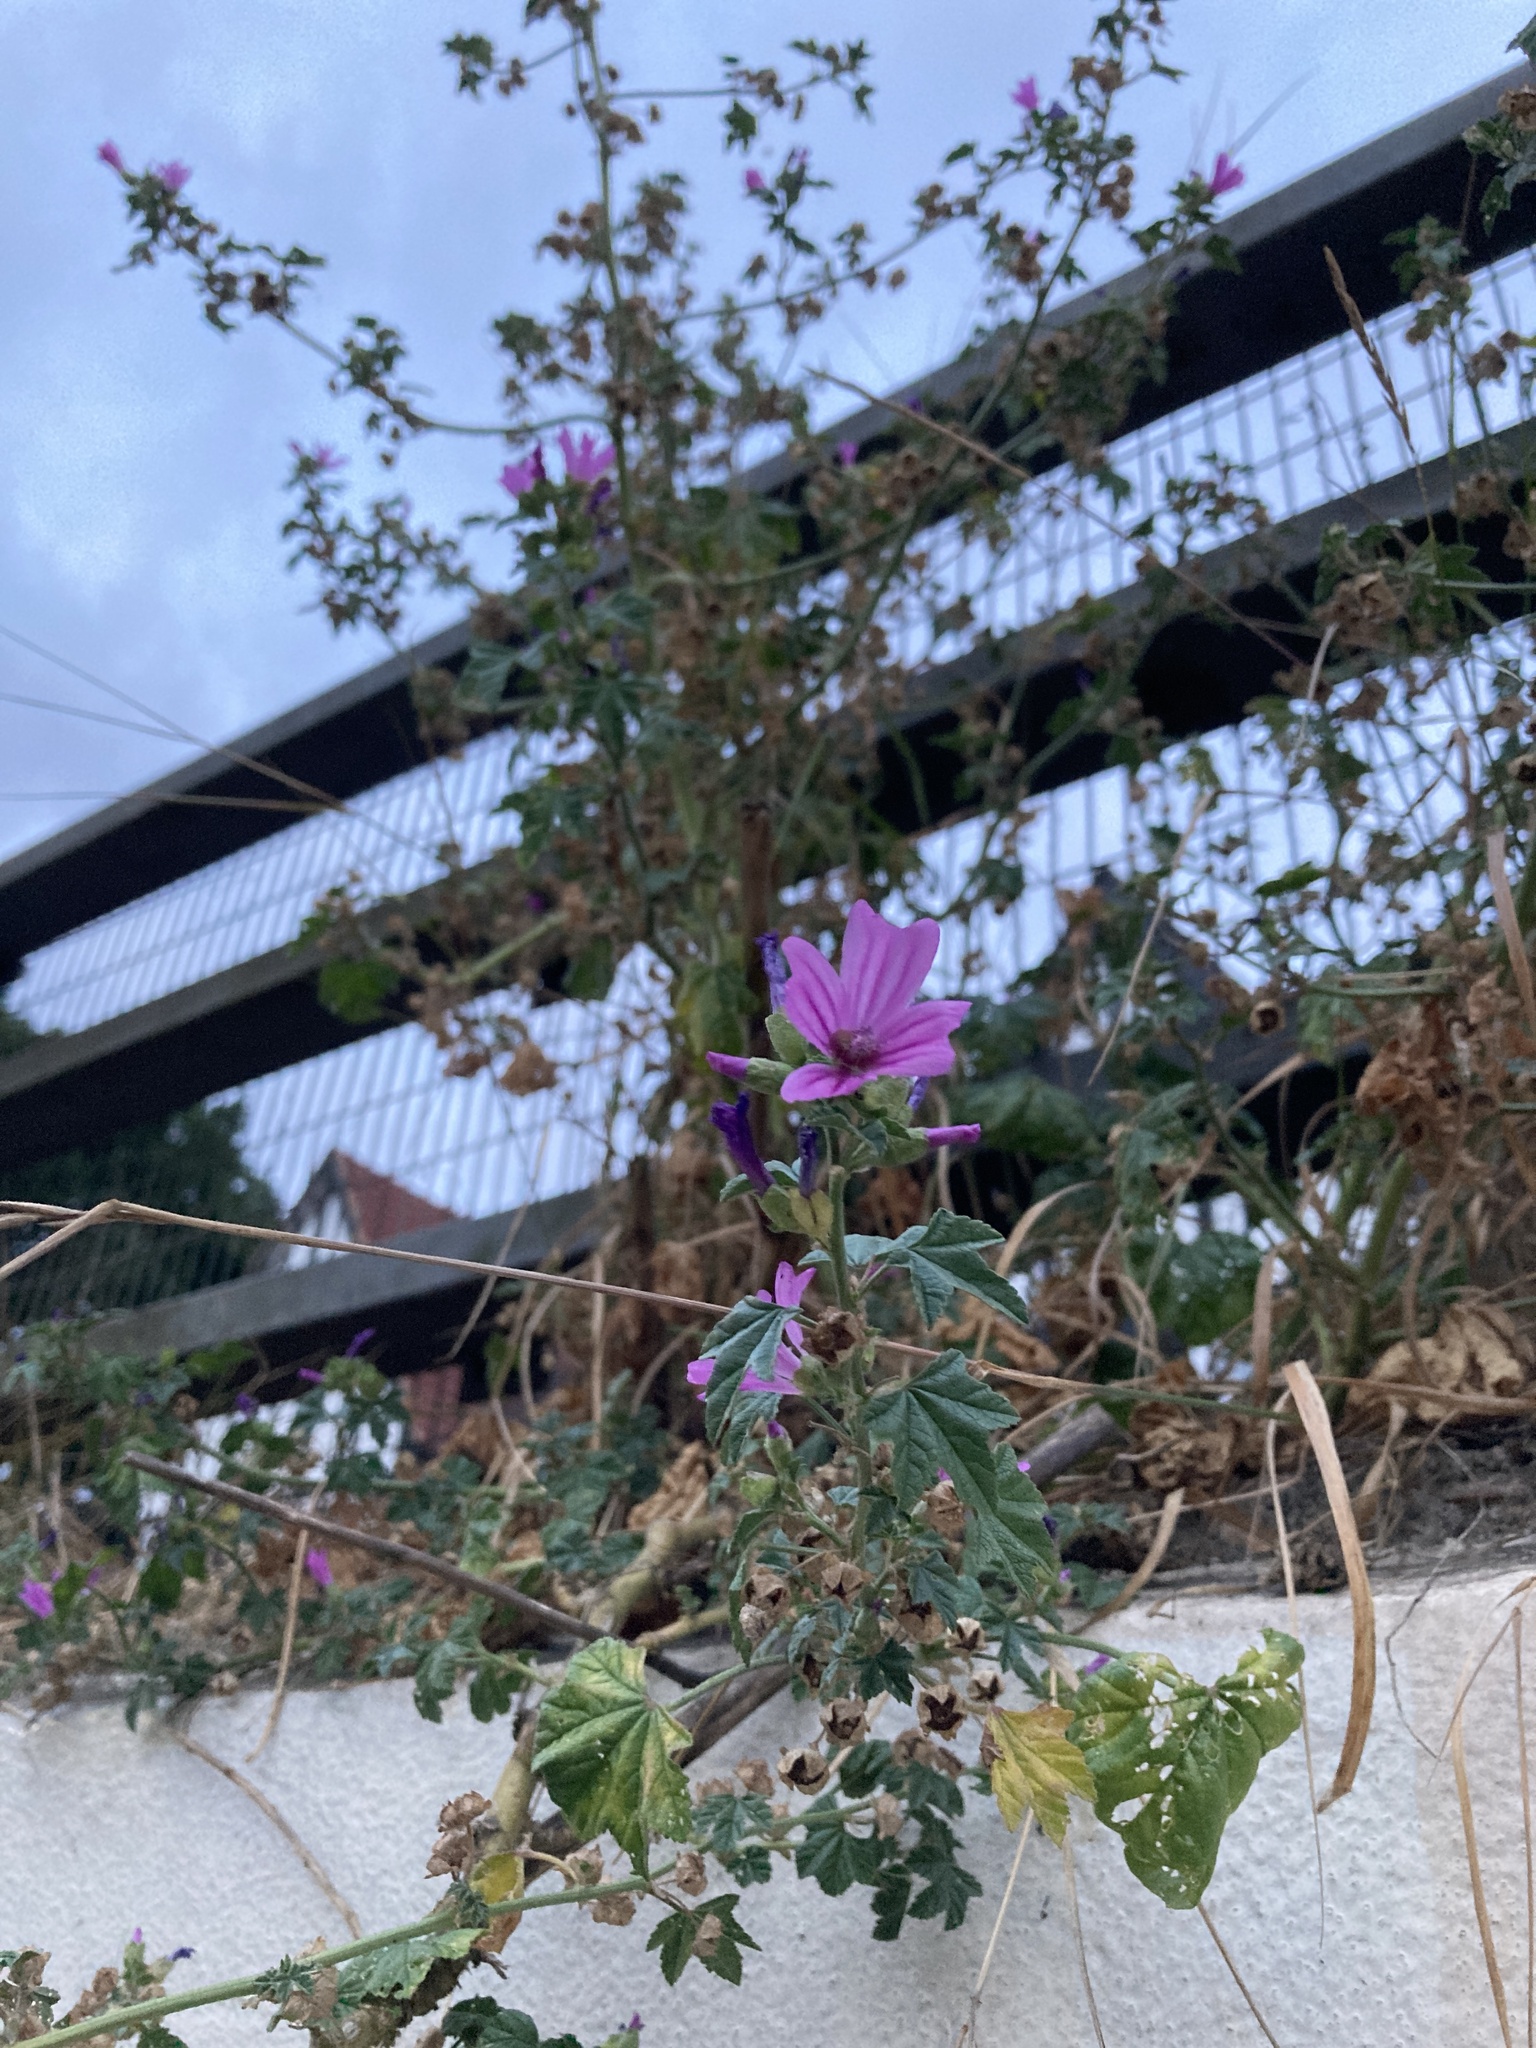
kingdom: Plantae
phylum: Tracheophyta
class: Magnoliopsida
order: Malvales
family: Malvaceae
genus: Malva
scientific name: Malva sylvestris
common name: Common mallow
